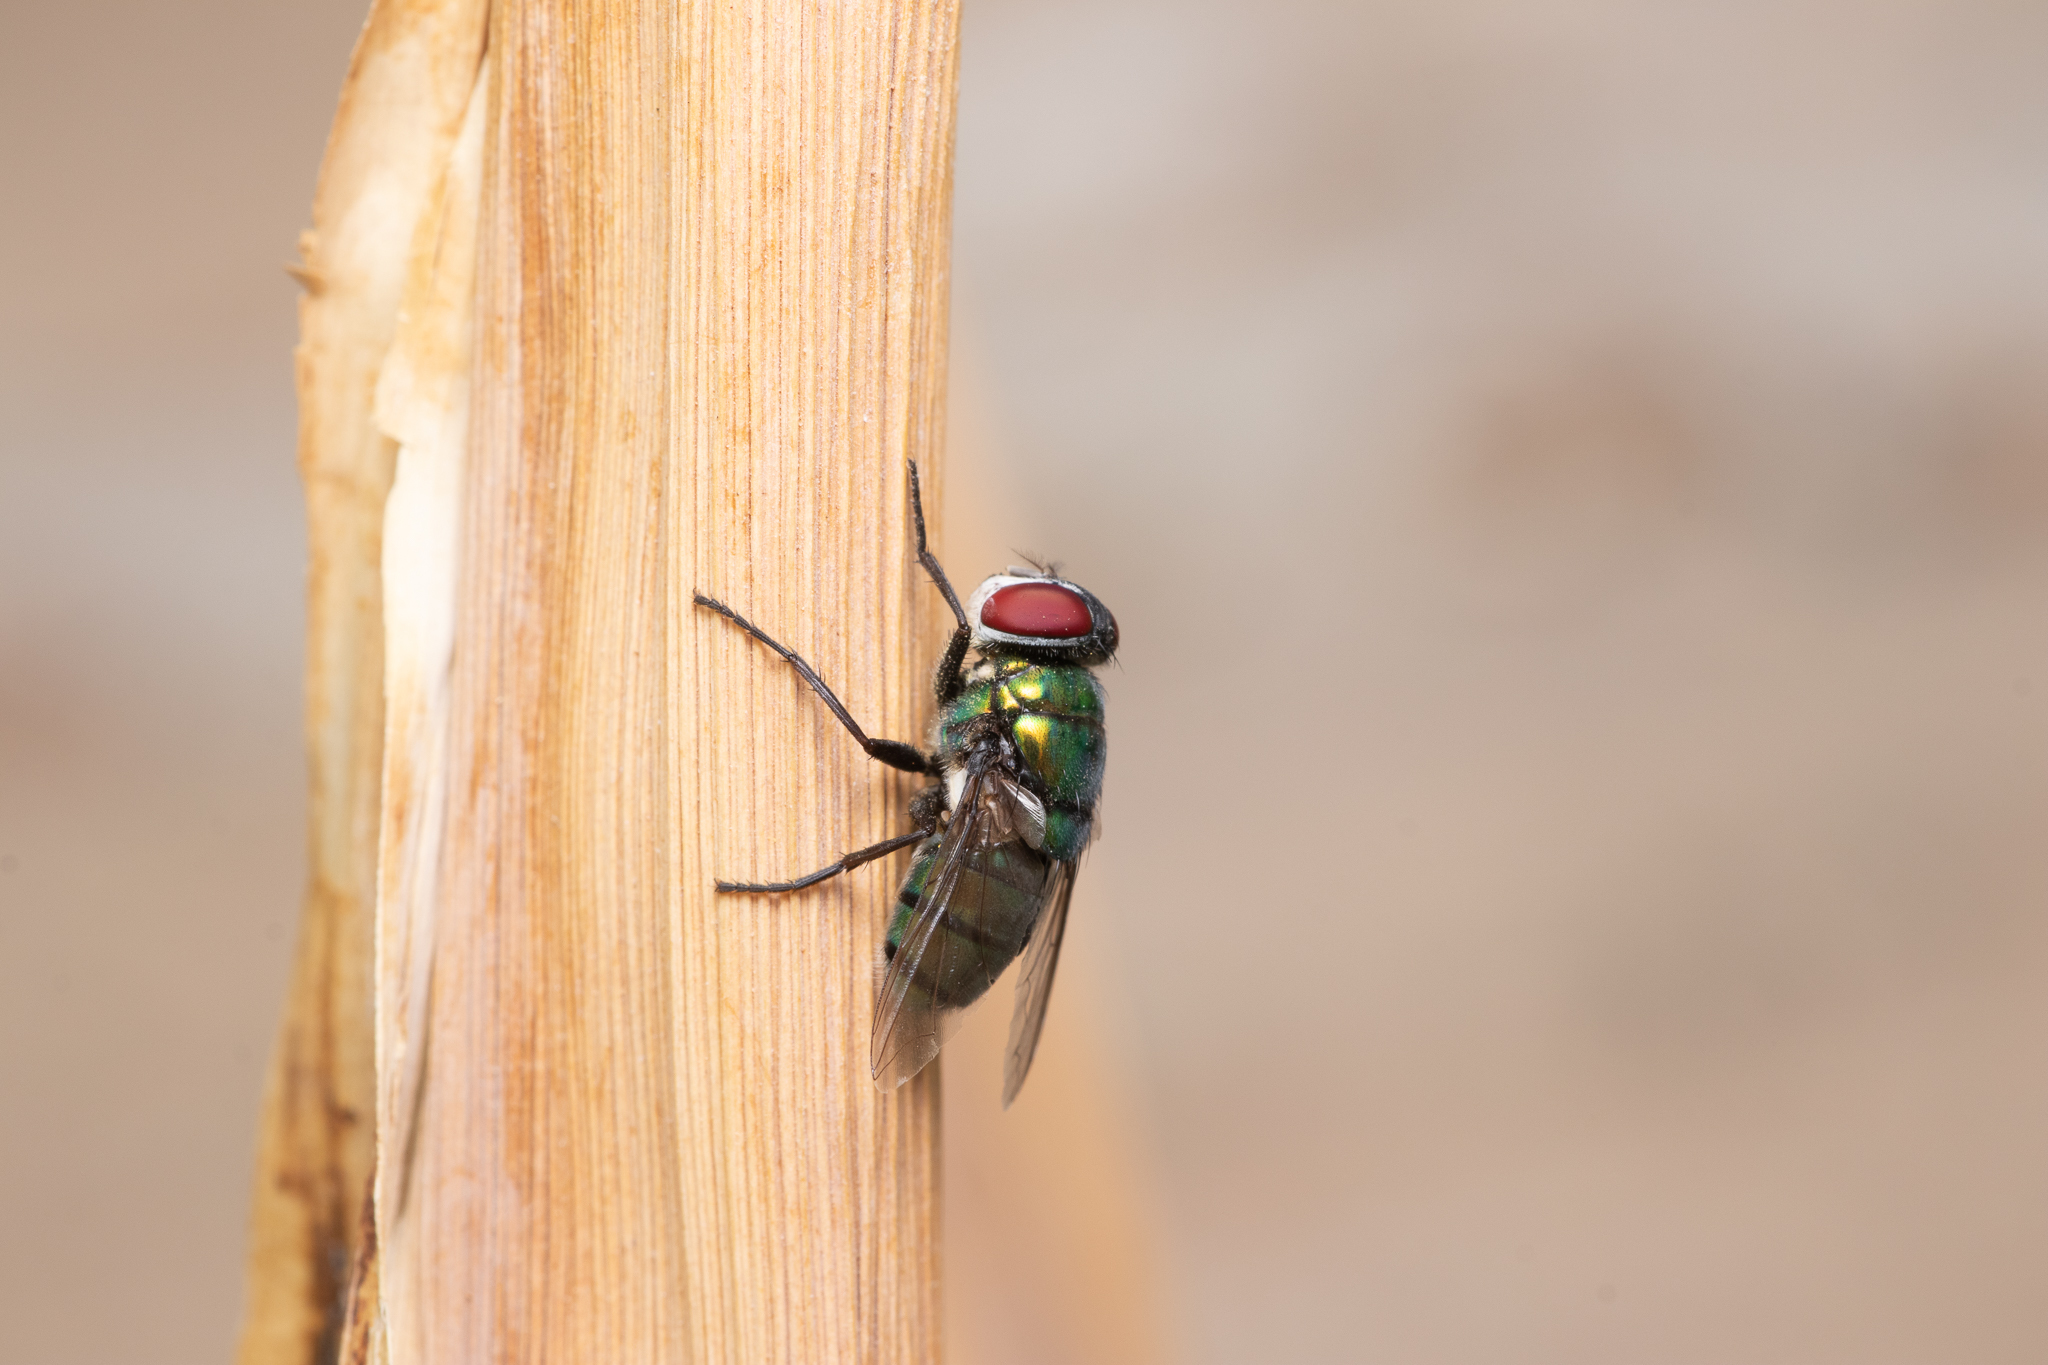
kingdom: Animalia
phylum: Arthropoda
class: Insecta
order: Diptera
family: Calliphoridae
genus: Chrysomya
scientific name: Chrysomya albiceps
